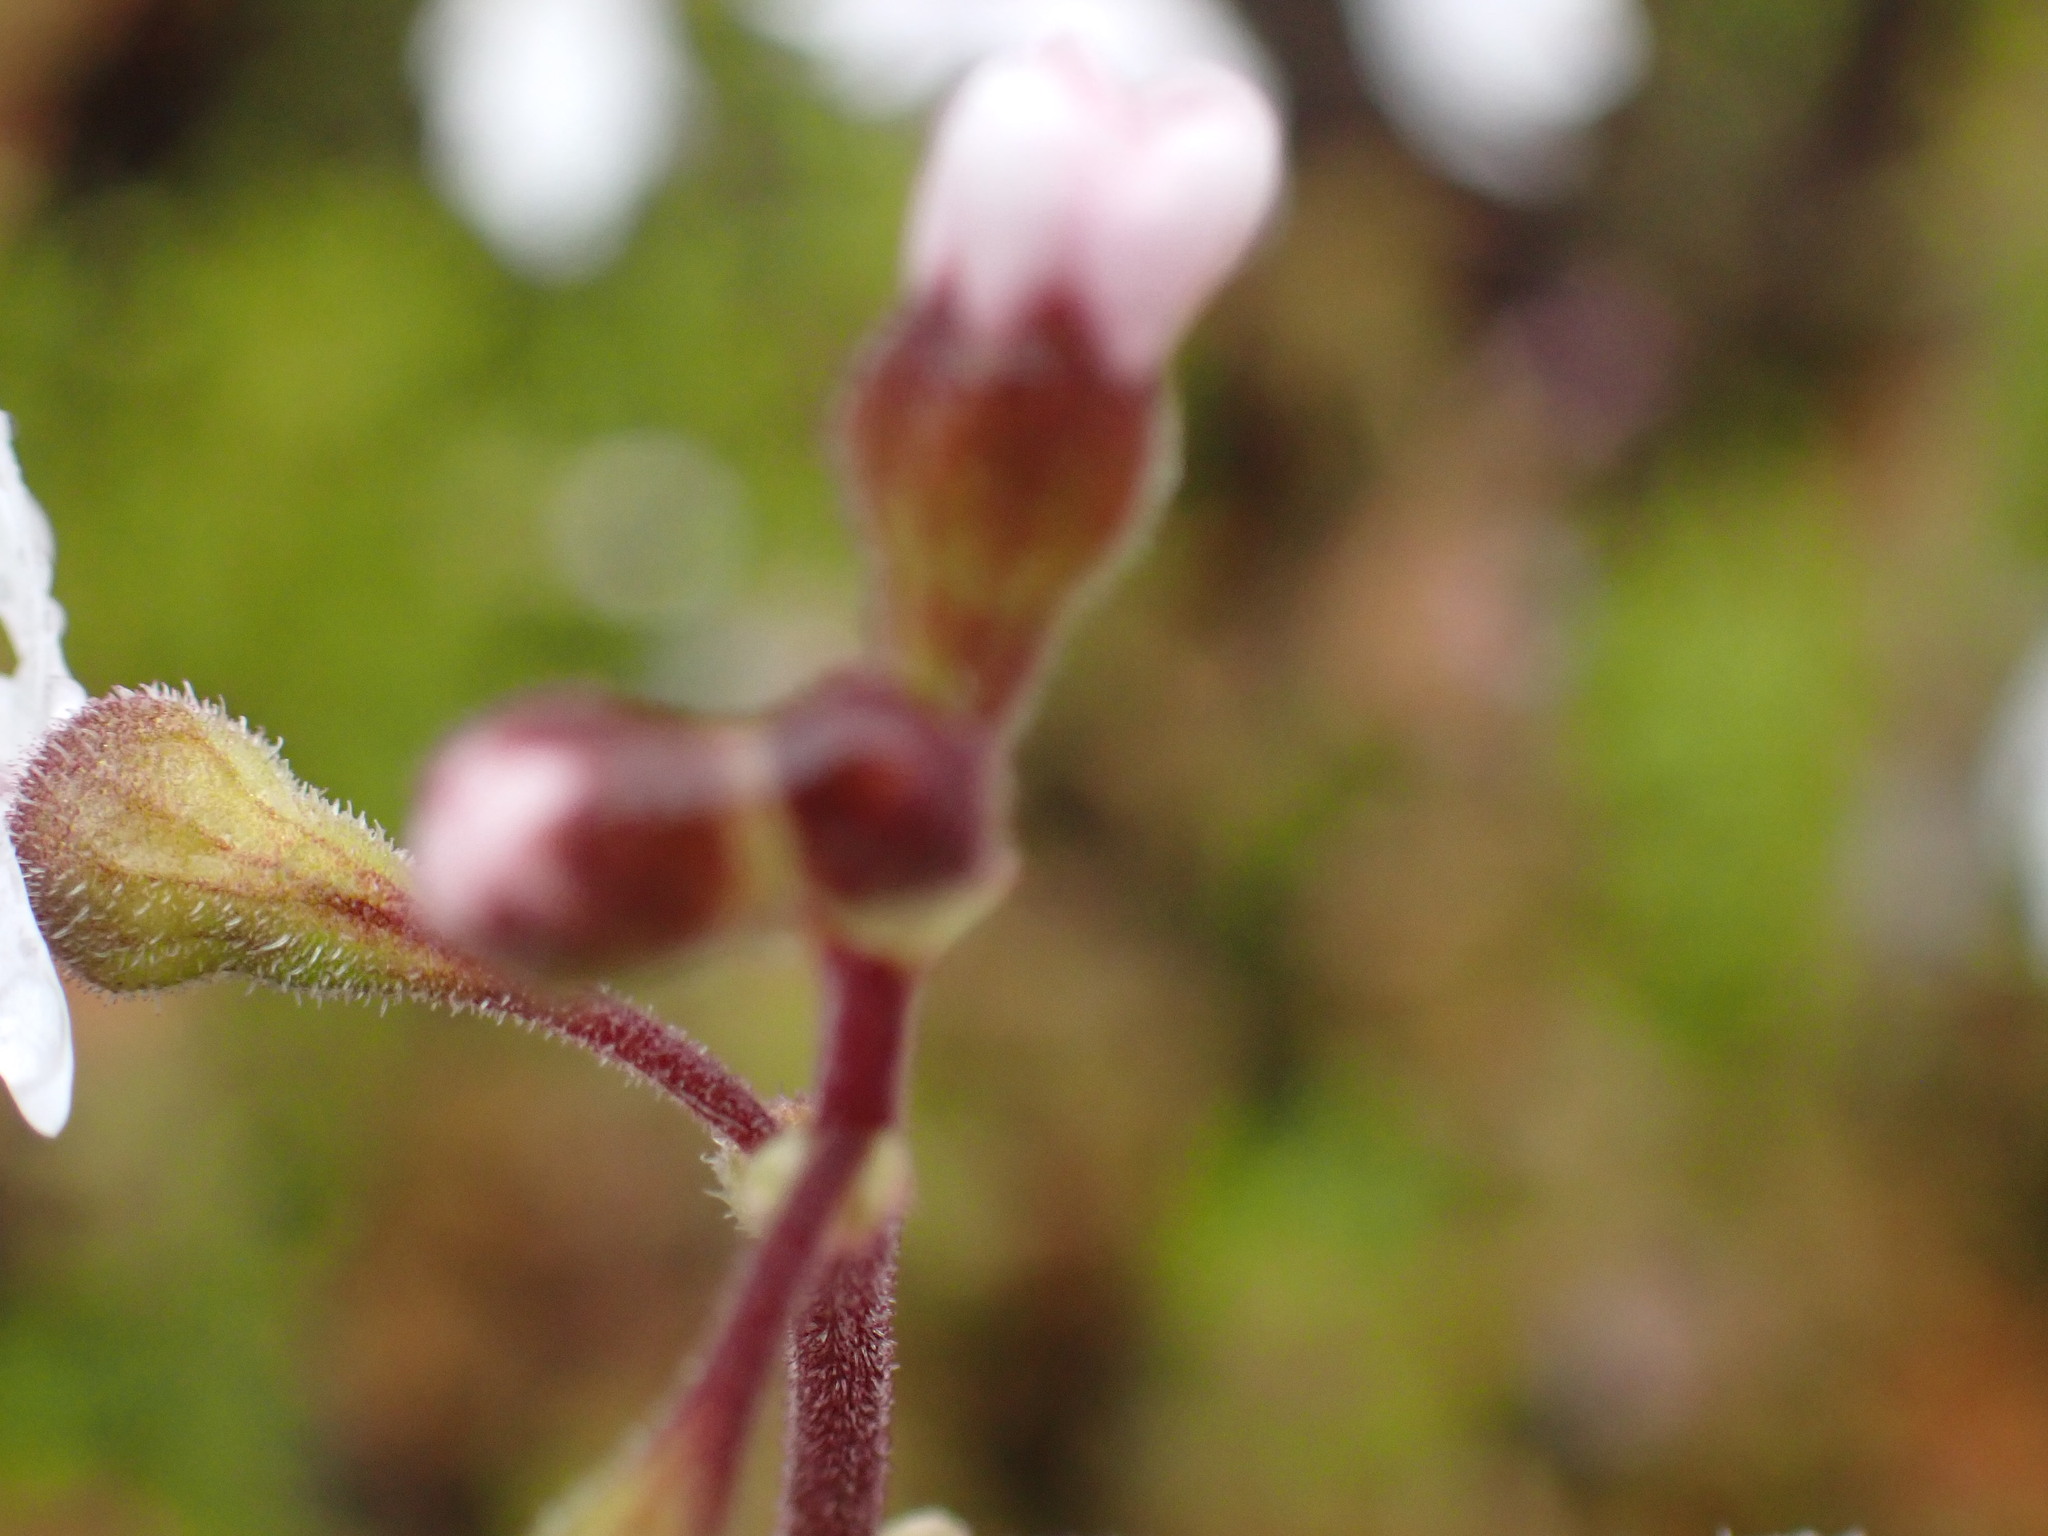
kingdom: Plantae
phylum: Tracheophyta
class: Magnoliopsida
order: Saxifragales
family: Saxifragaceae
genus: Lithophragma
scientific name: Lithophragma parviflorum
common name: Small-flowered fringe-cup
